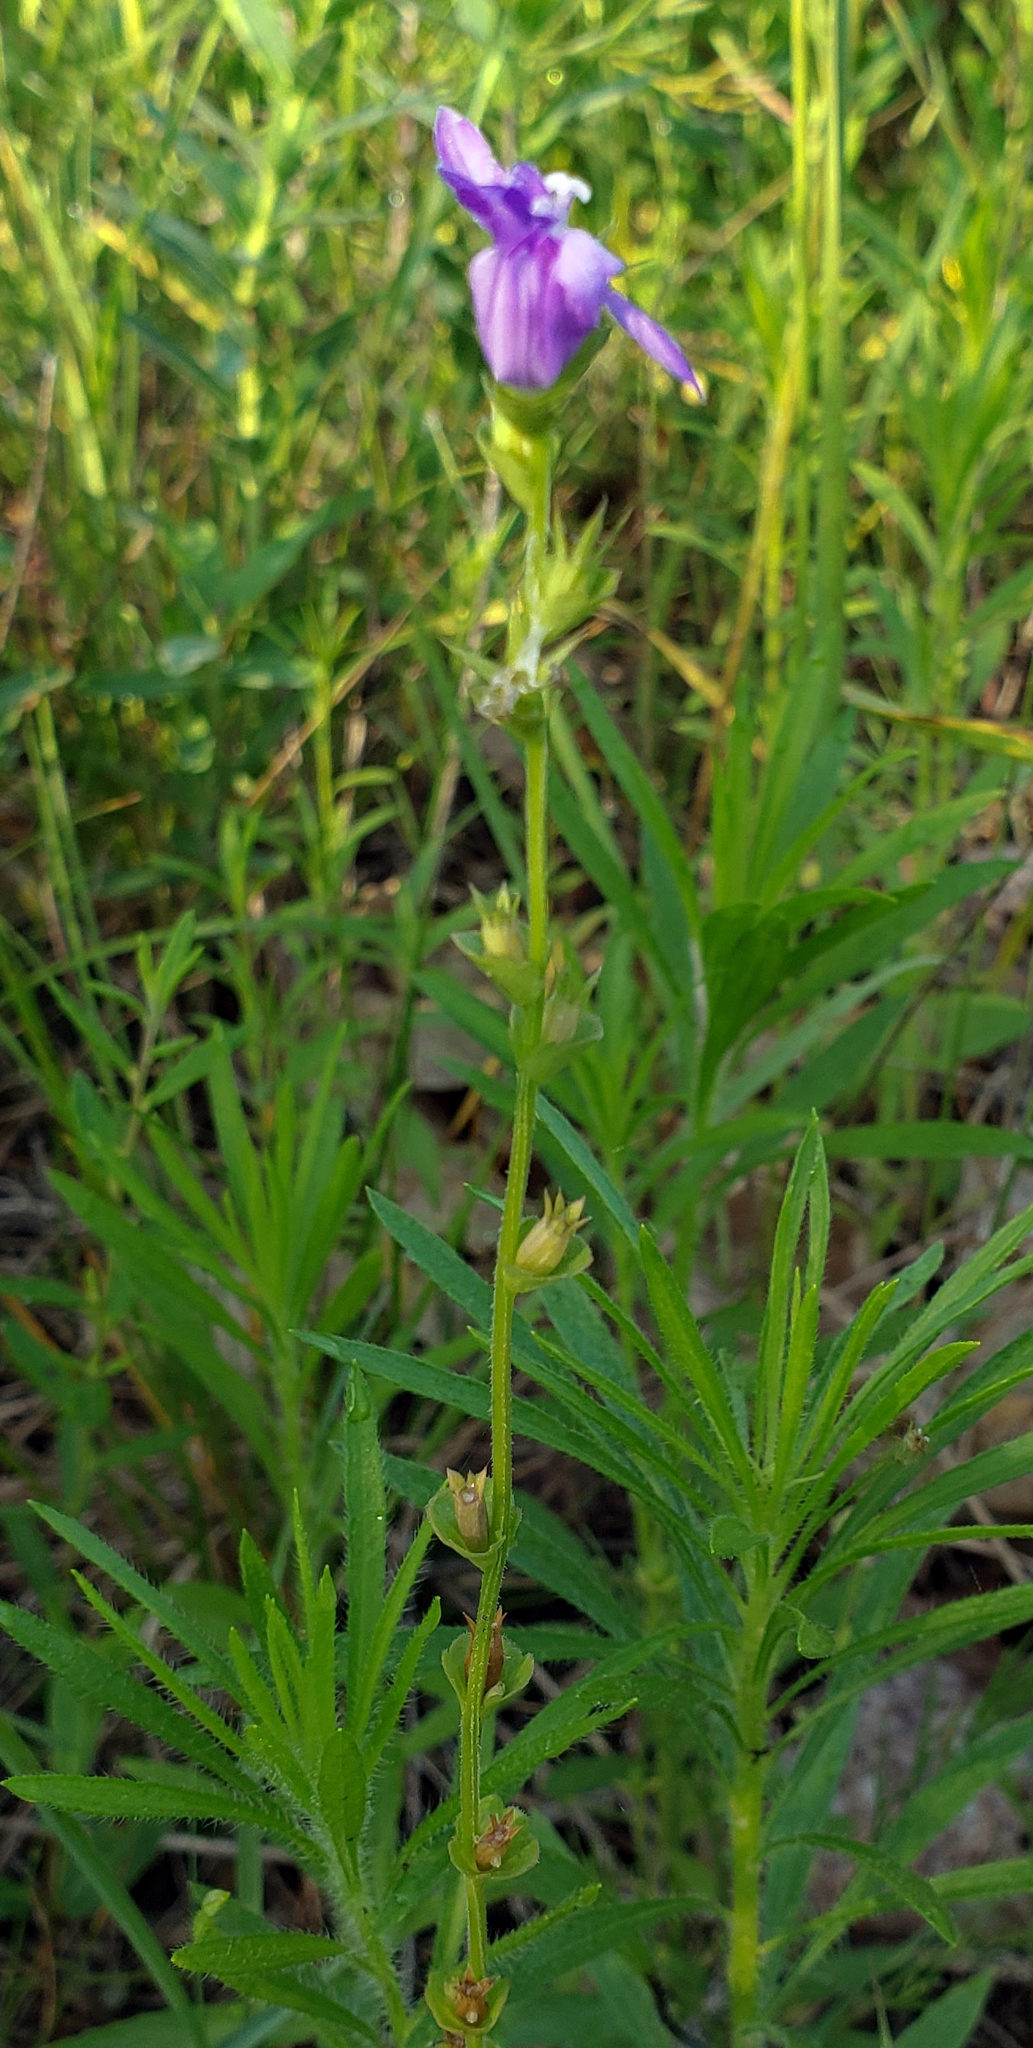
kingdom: Plantae
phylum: Tracheophyta
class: Magnoliopsida
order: Asterales
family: Campanulaceae
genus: Triodanis
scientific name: Triodanis perfoliata
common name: Clasping venus' looking-glass
